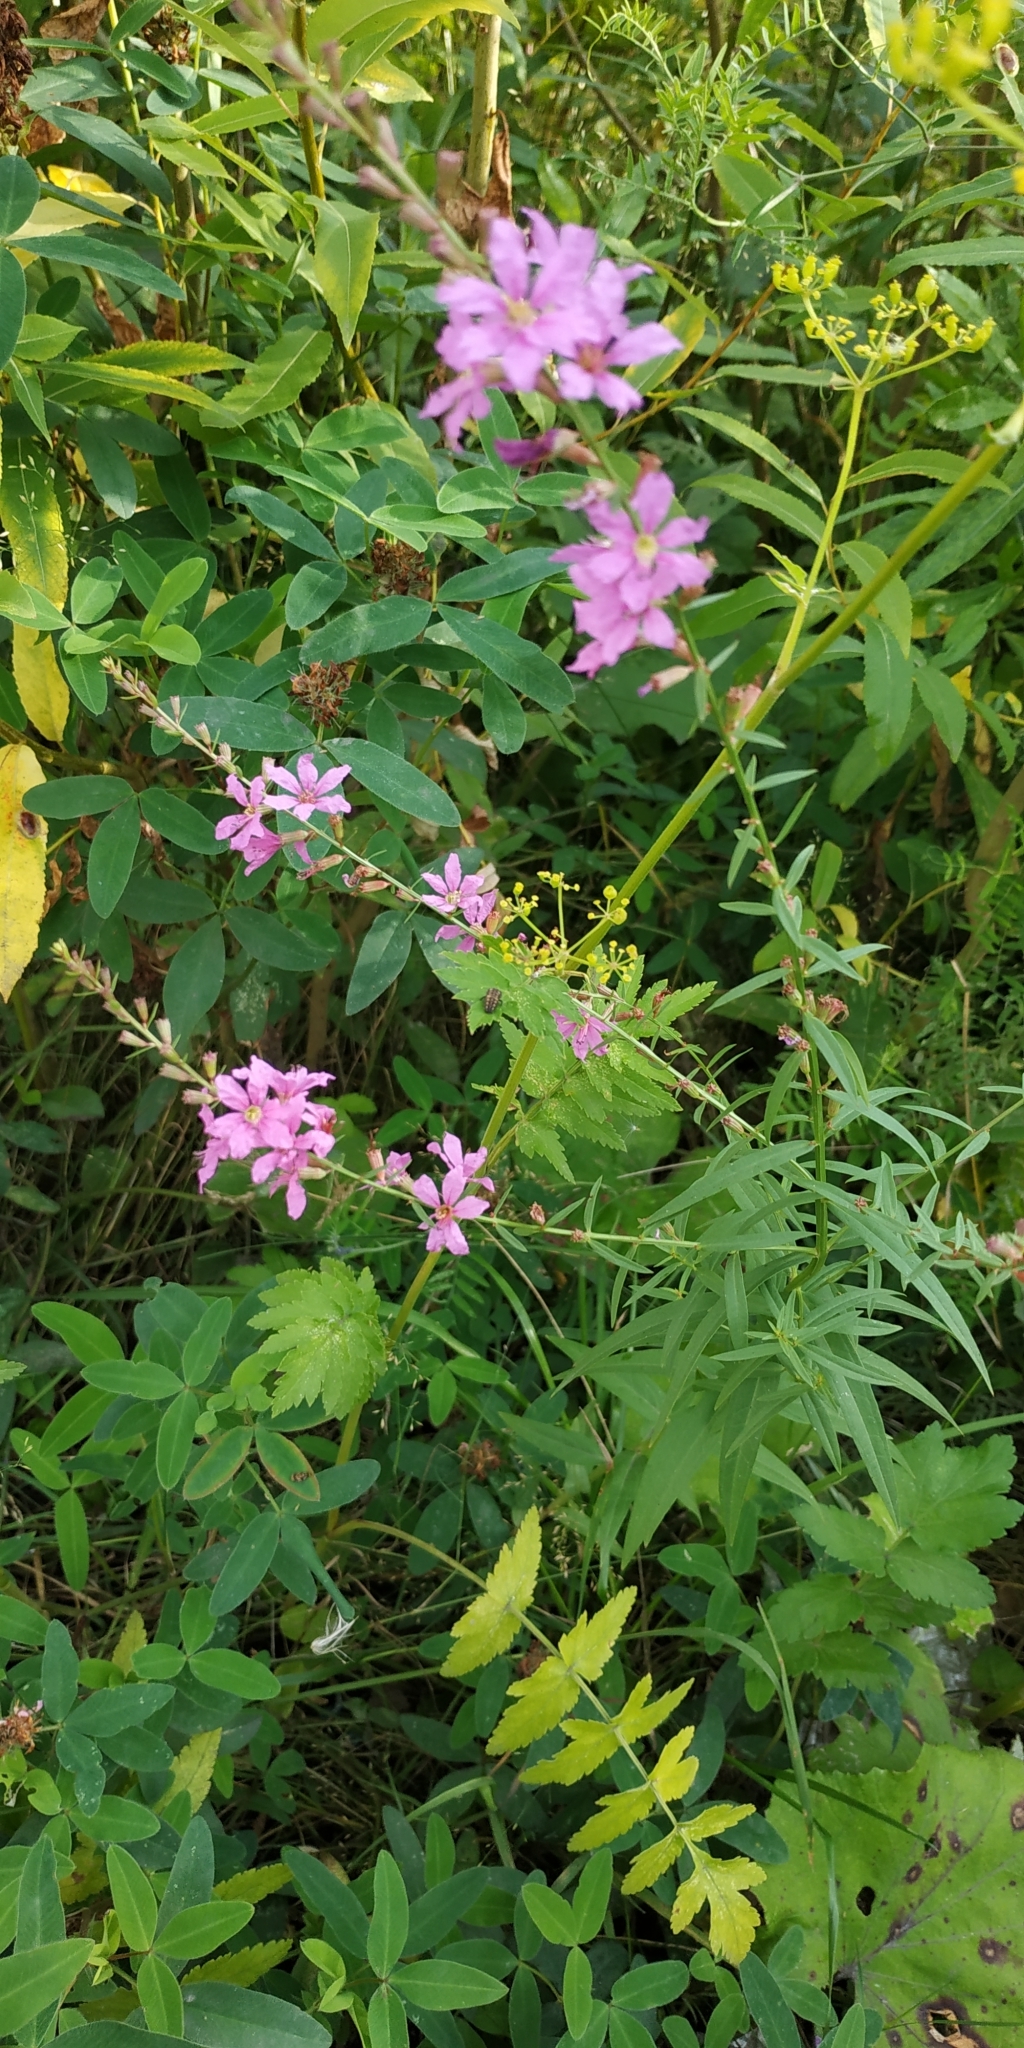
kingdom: Plantae
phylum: Tracheophyta
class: Magnoliopsida
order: Myrtales
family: Lythraceae
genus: Lythrum
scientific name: Lythrum salicaria
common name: Purple loosestrife
